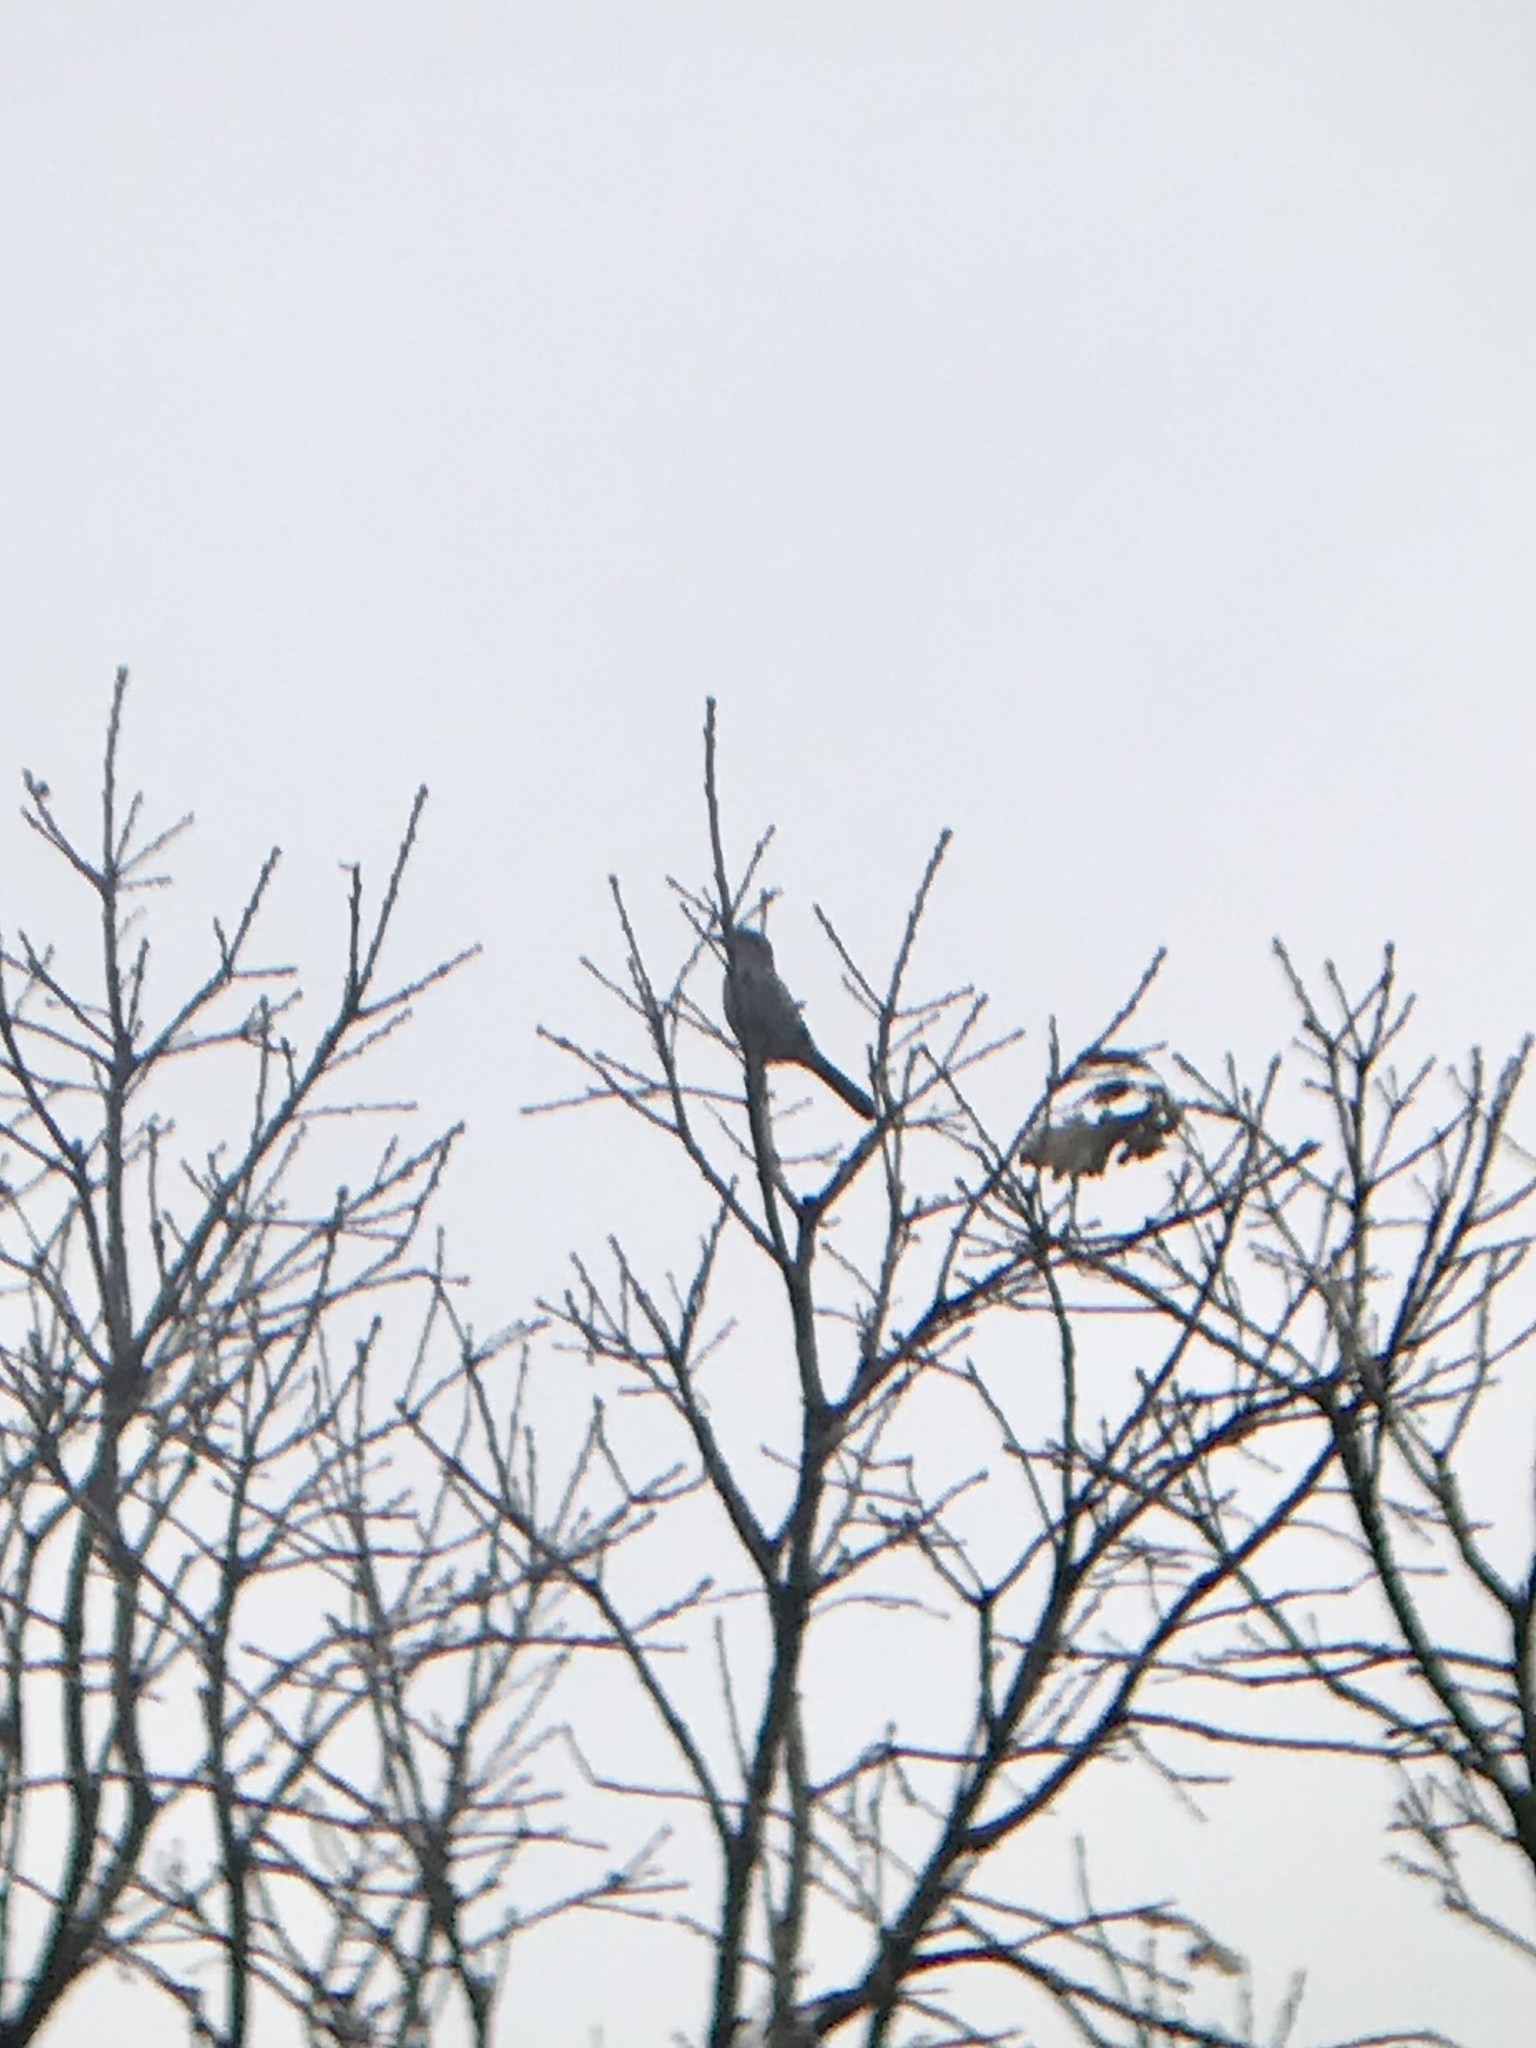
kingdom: Animalia
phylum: Chordata
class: Aves
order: Passeriformes
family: Laniidae
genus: Lanius
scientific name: Lanius borealis
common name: Northern shrike
